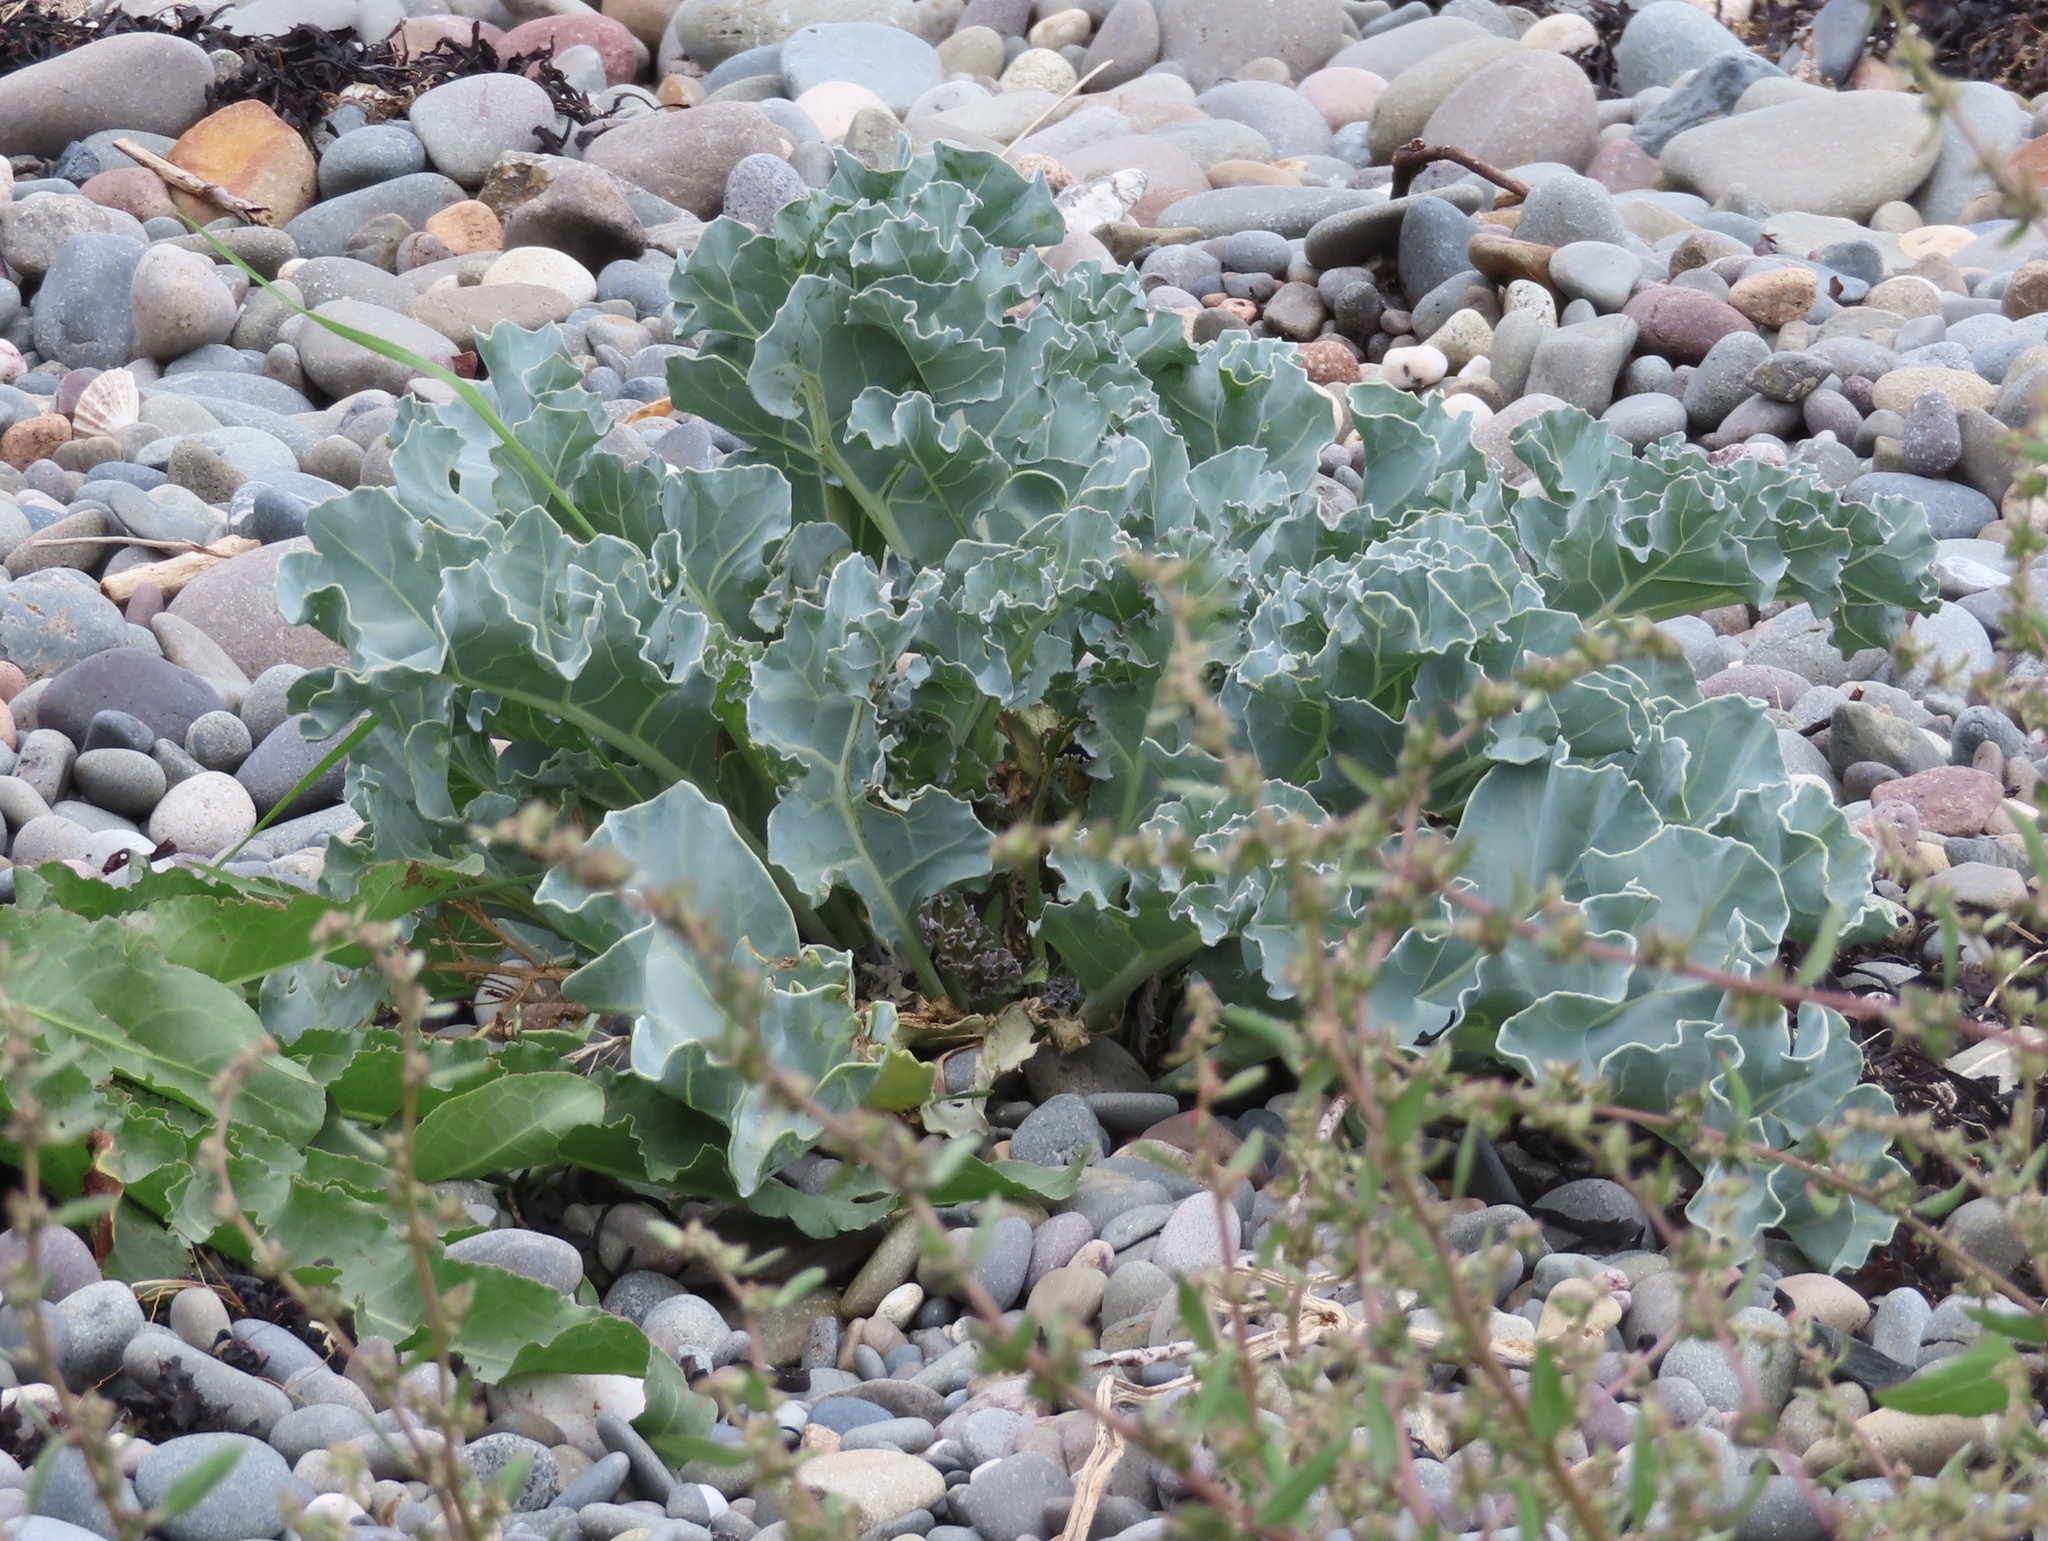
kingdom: Plantae
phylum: Tracheophyta
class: Magnoliopsida
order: Brassicales
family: Brassicaceae
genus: Crambe
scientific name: Crambe maritima
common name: Sea-kale
